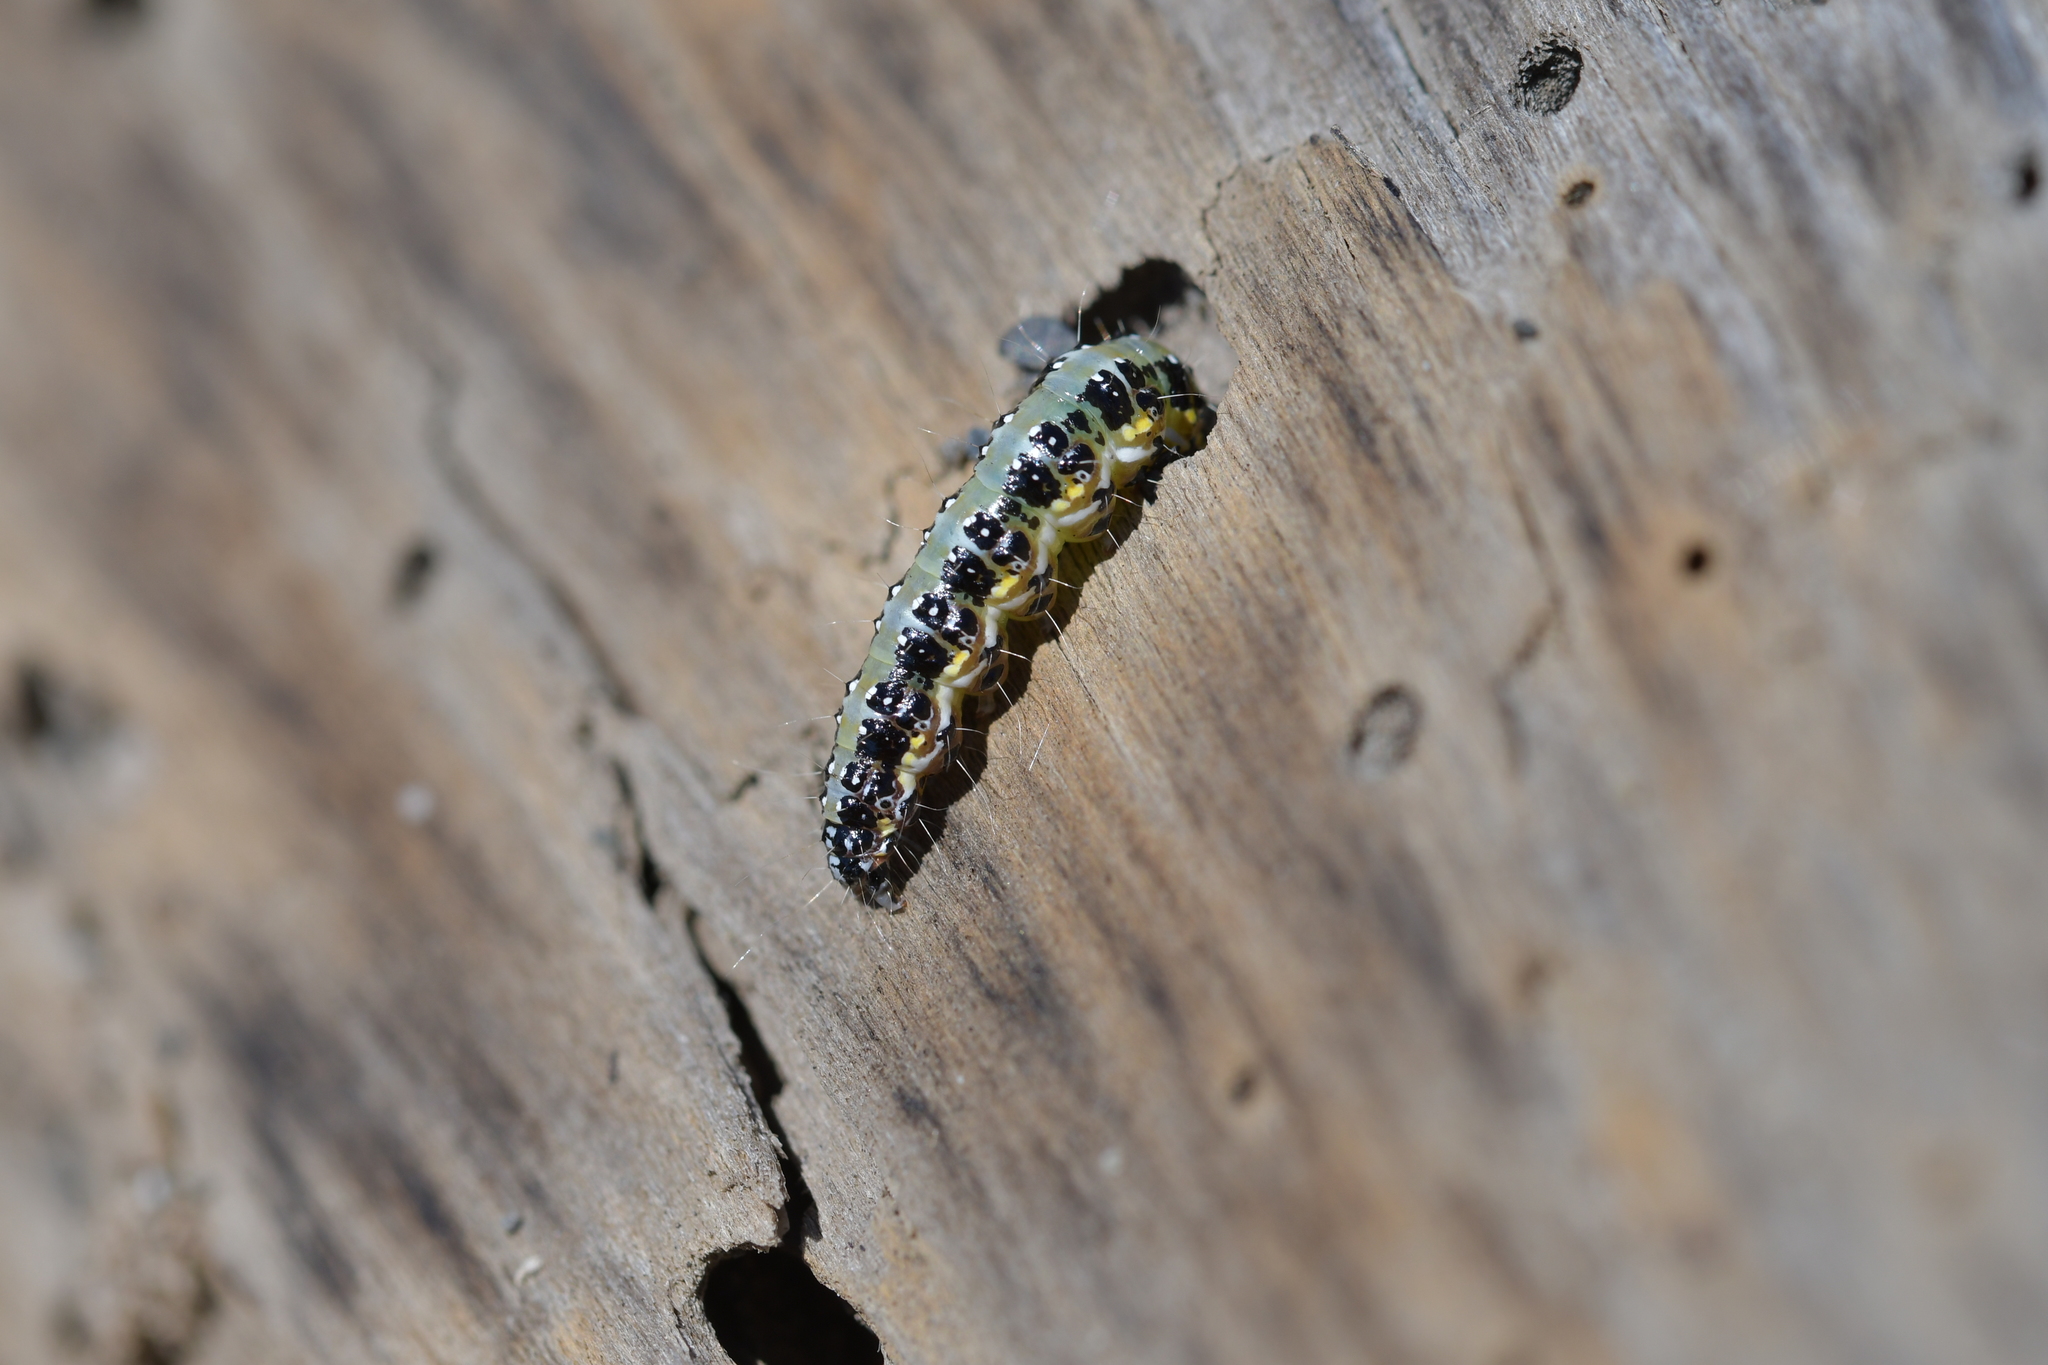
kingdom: Animalia
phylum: Arthropoda
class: Insecta
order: Lepidoptera
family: Crambidae
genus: Uresiphita
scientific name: Uresiphita
